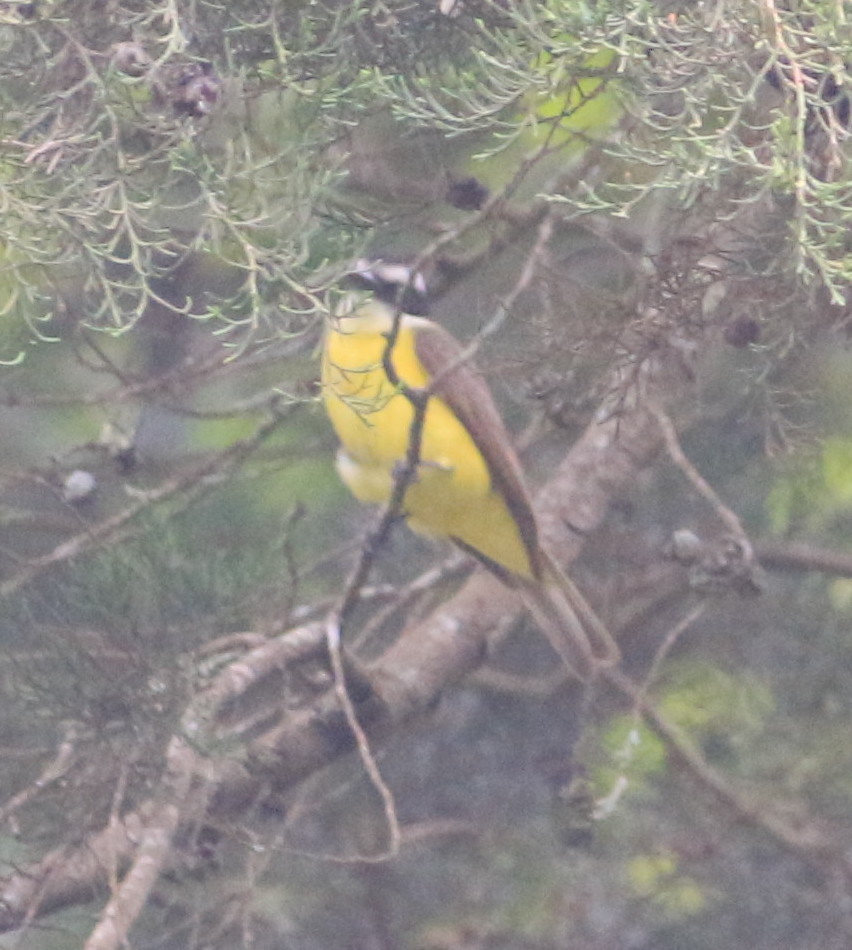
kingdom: Animalia
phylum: Chordata
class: Aves
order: Passeriformes
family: Tyrannidae
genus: Myiozetetes
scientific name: Myiozetetes similis
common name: Social flycatcher
